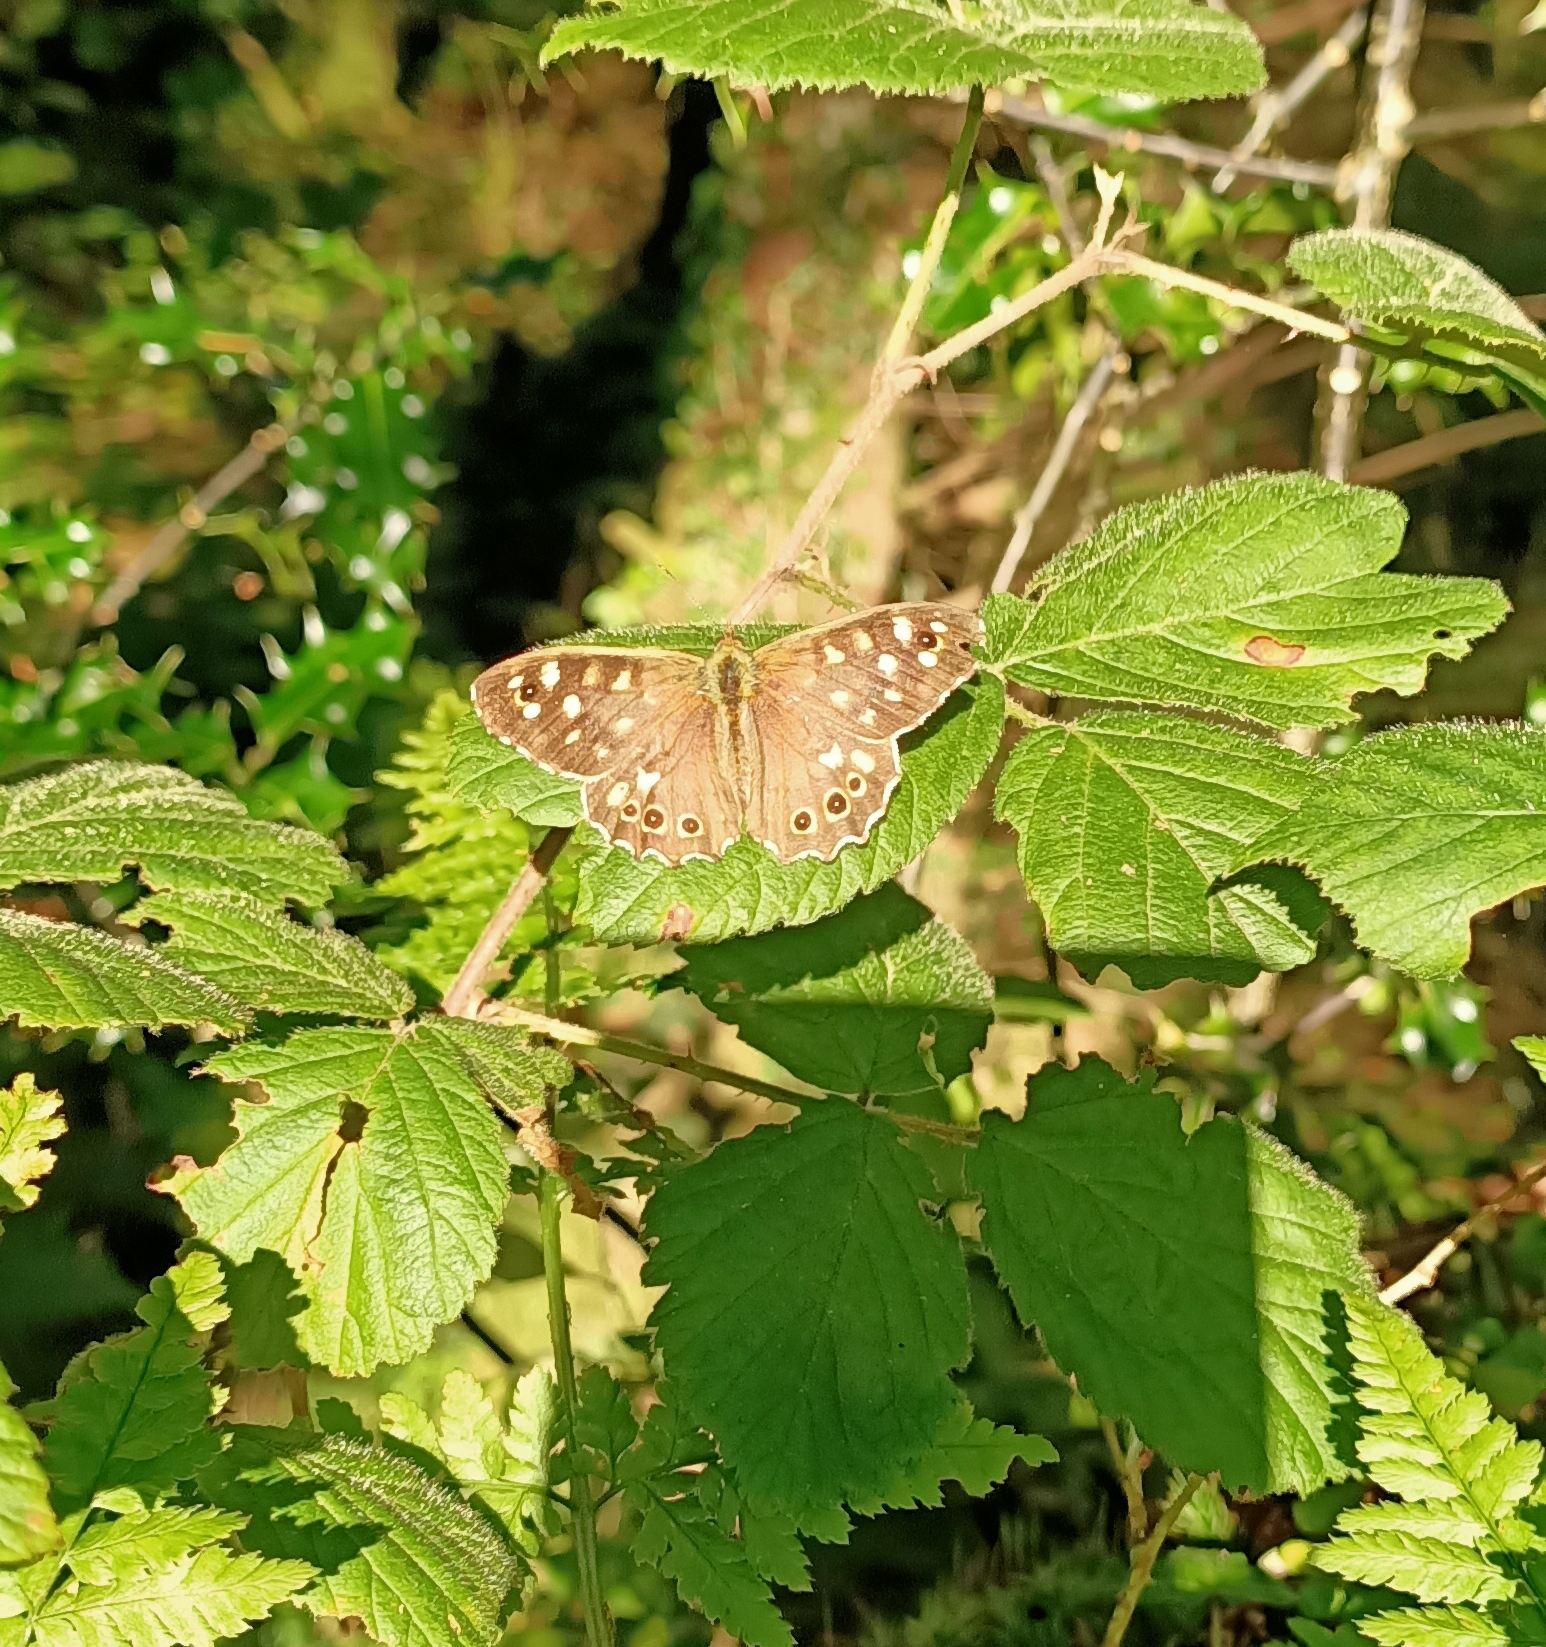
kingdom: Animalia
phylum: Arthropoda
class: Insecta
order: Lepidoptera
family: Nymphalidae
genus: Pararge
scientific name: Pararge aegeria
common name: Speckled wood
